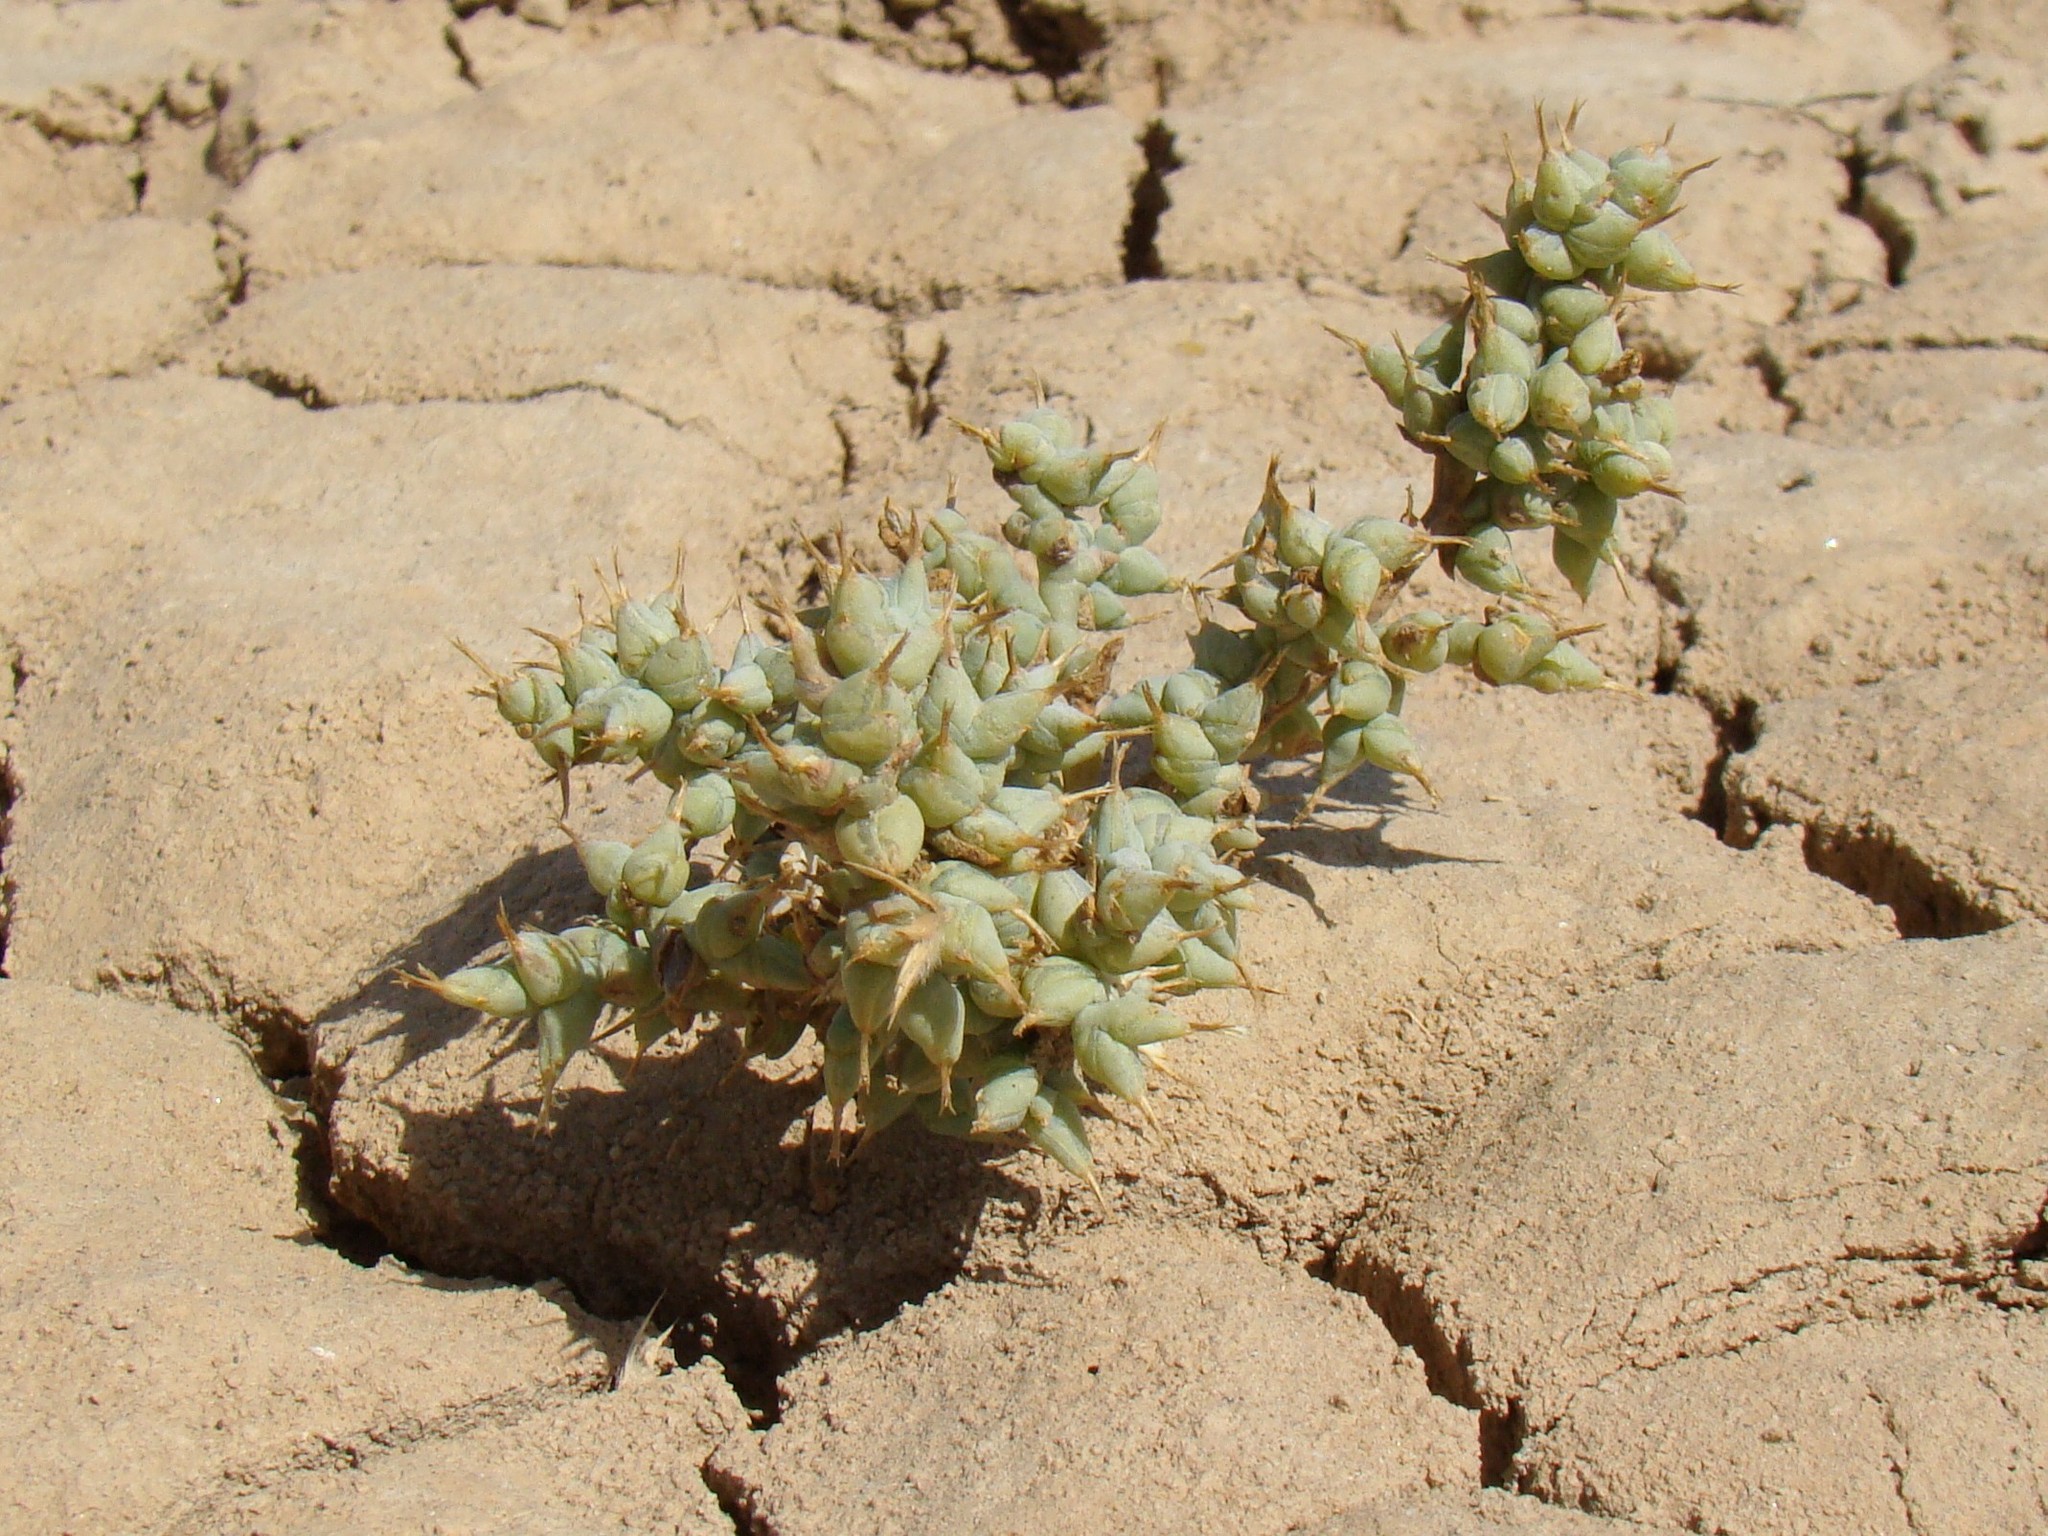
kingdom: Plantae
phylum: Tracheophyta
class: Magnoliopsida
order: Caryophyllales
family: Amaranthaceae
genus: Halimocnemis
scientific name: Halimocnemis karelinii
